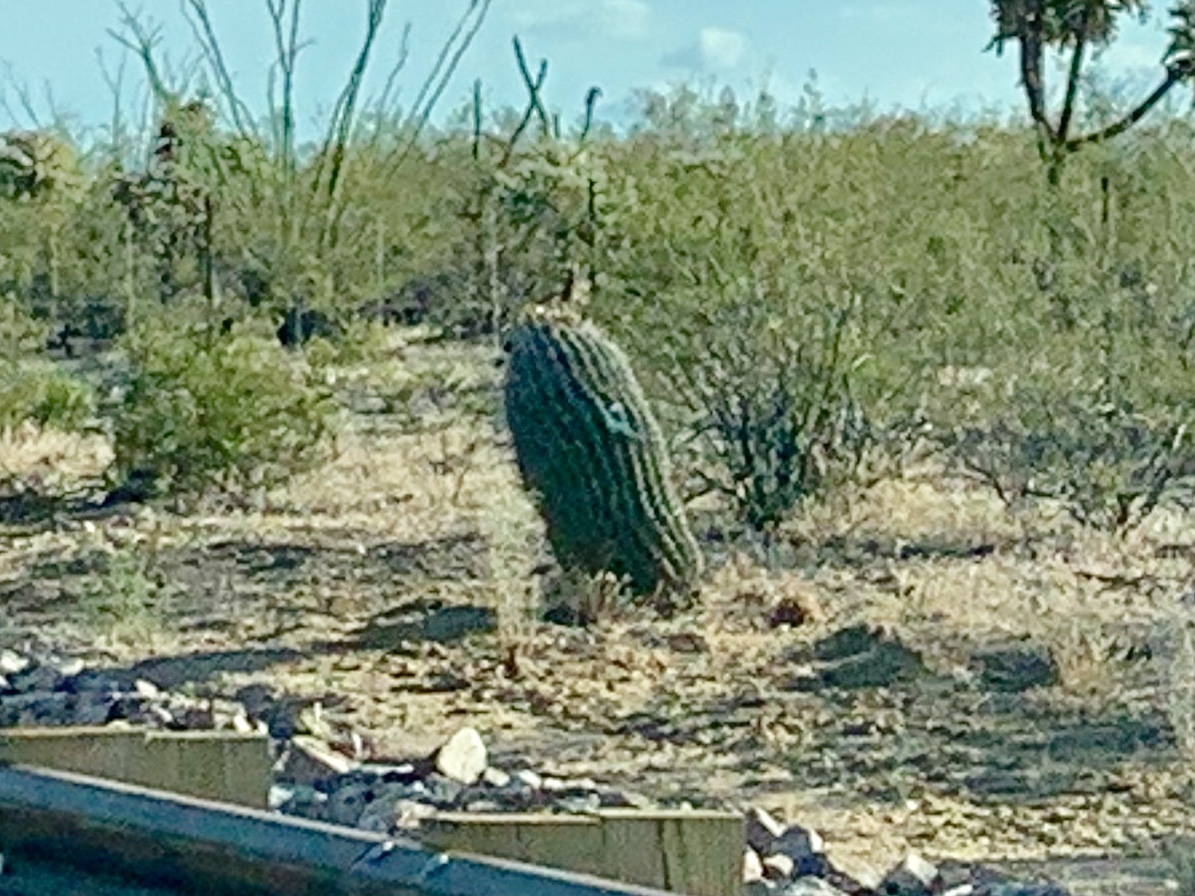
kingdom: Plantae
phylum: Tracheophyta
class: Magnoliopsida
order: Caryophyllales
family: Cactaceae
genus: Ferocactus
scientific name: Ferocactus wislizeni
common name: Candy barrel cactus
